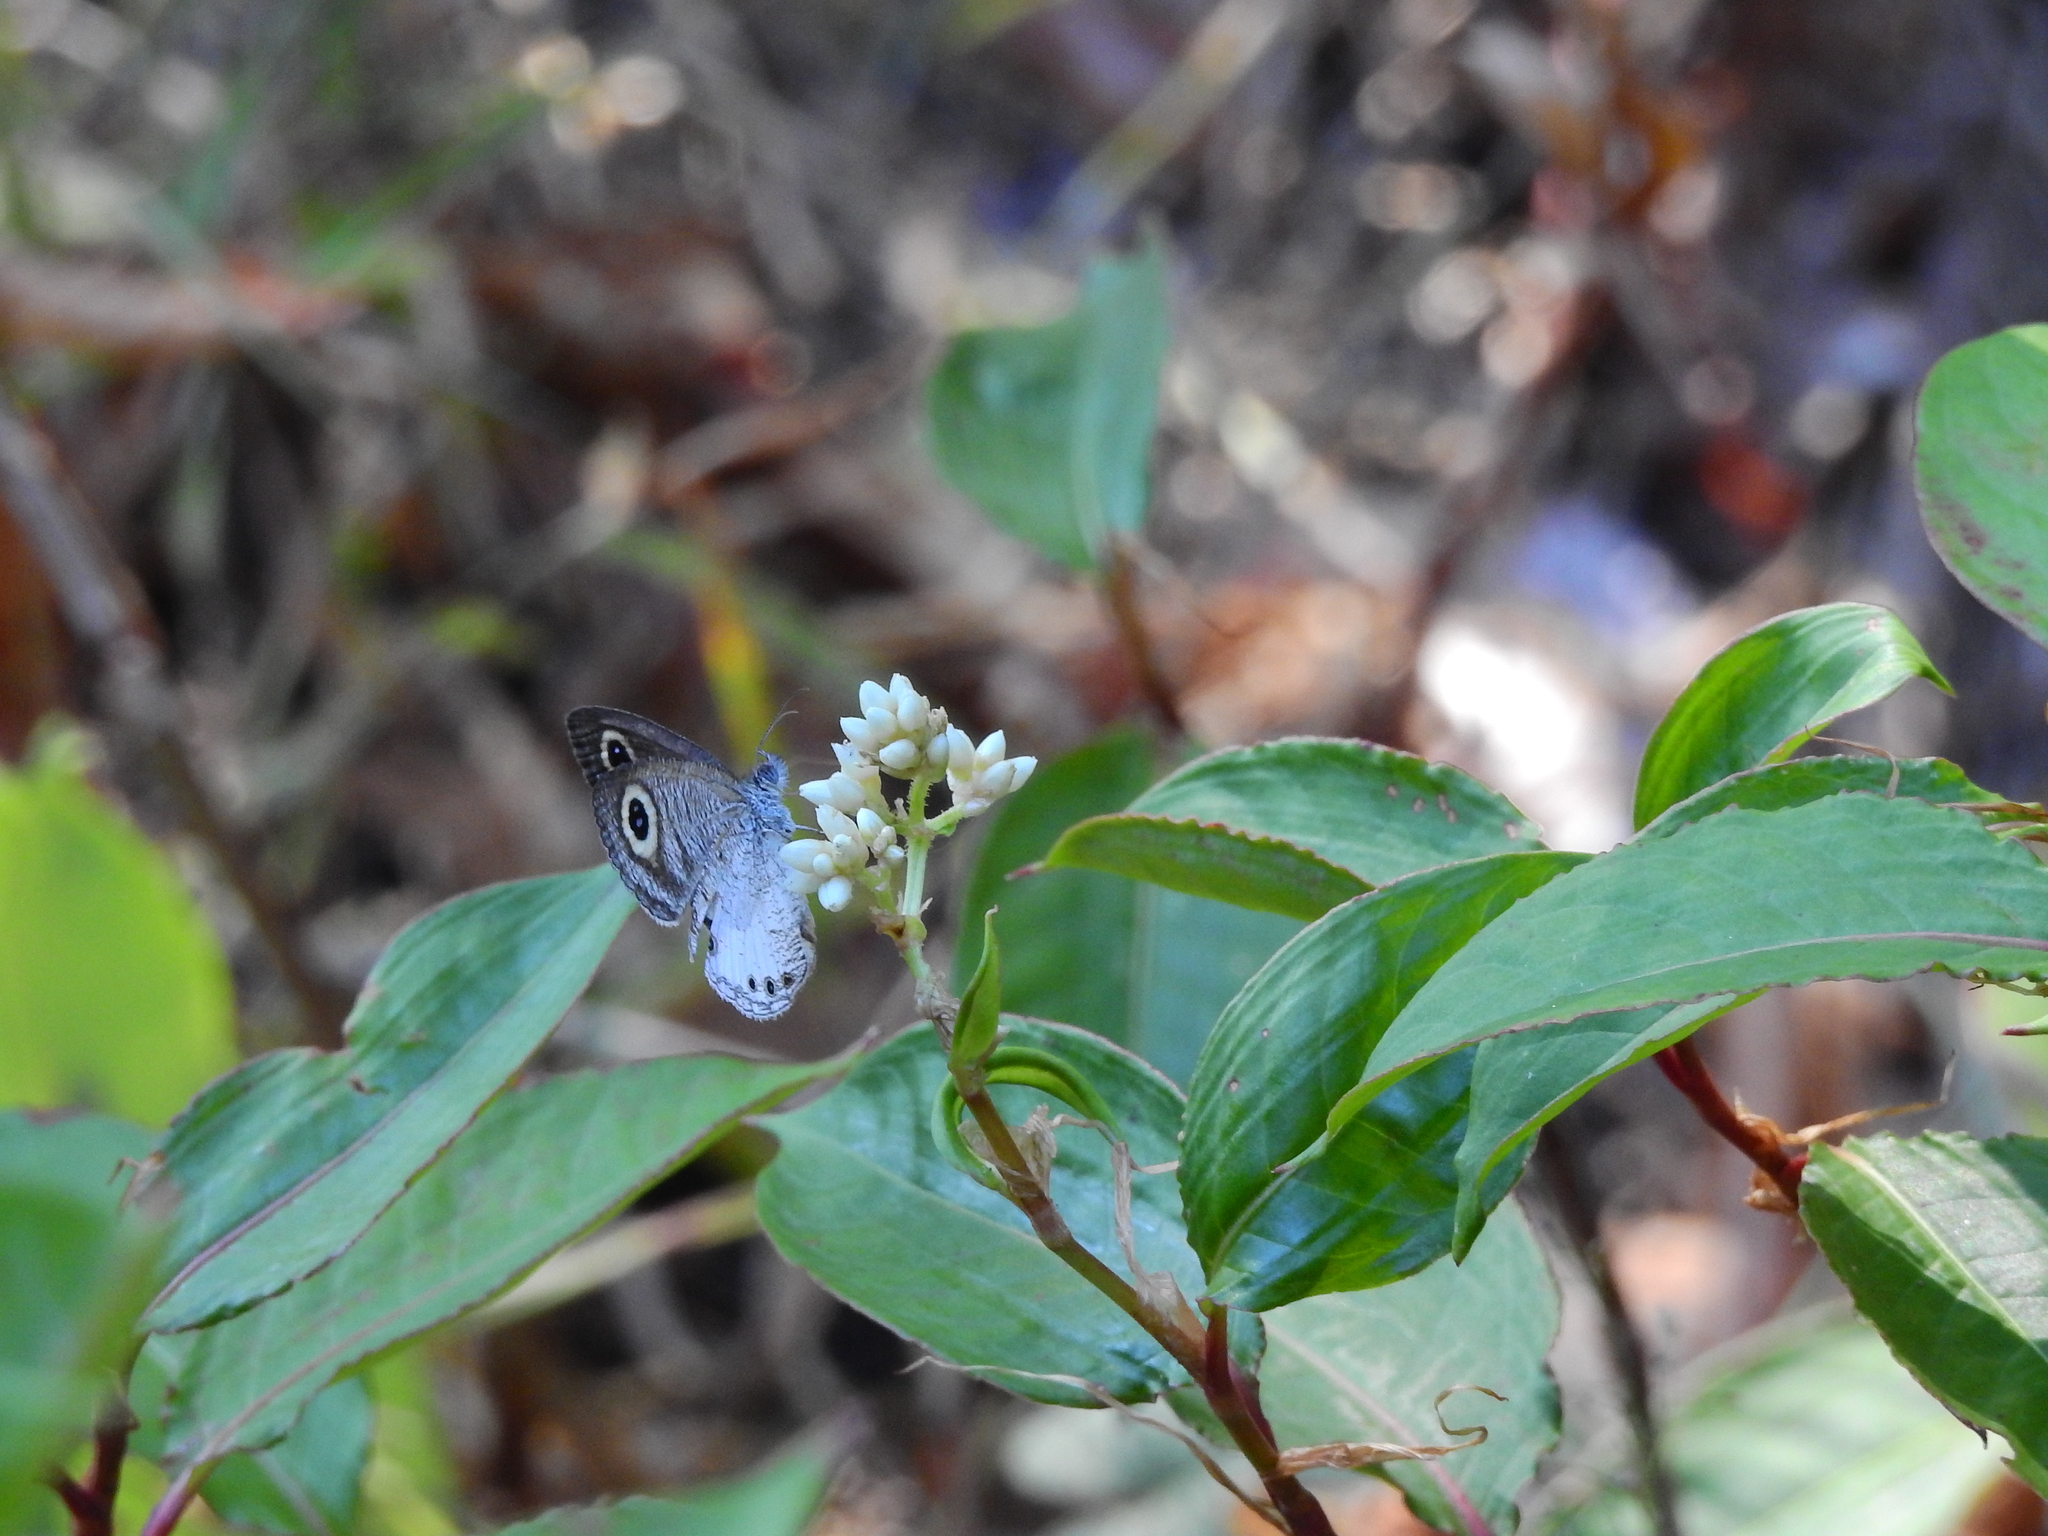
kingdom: Animalia
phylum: Arthropoda
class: Insecta
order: Lepidoptera
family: Nymphalidae
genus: Ypthima
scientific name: Ypthima ceylonica
